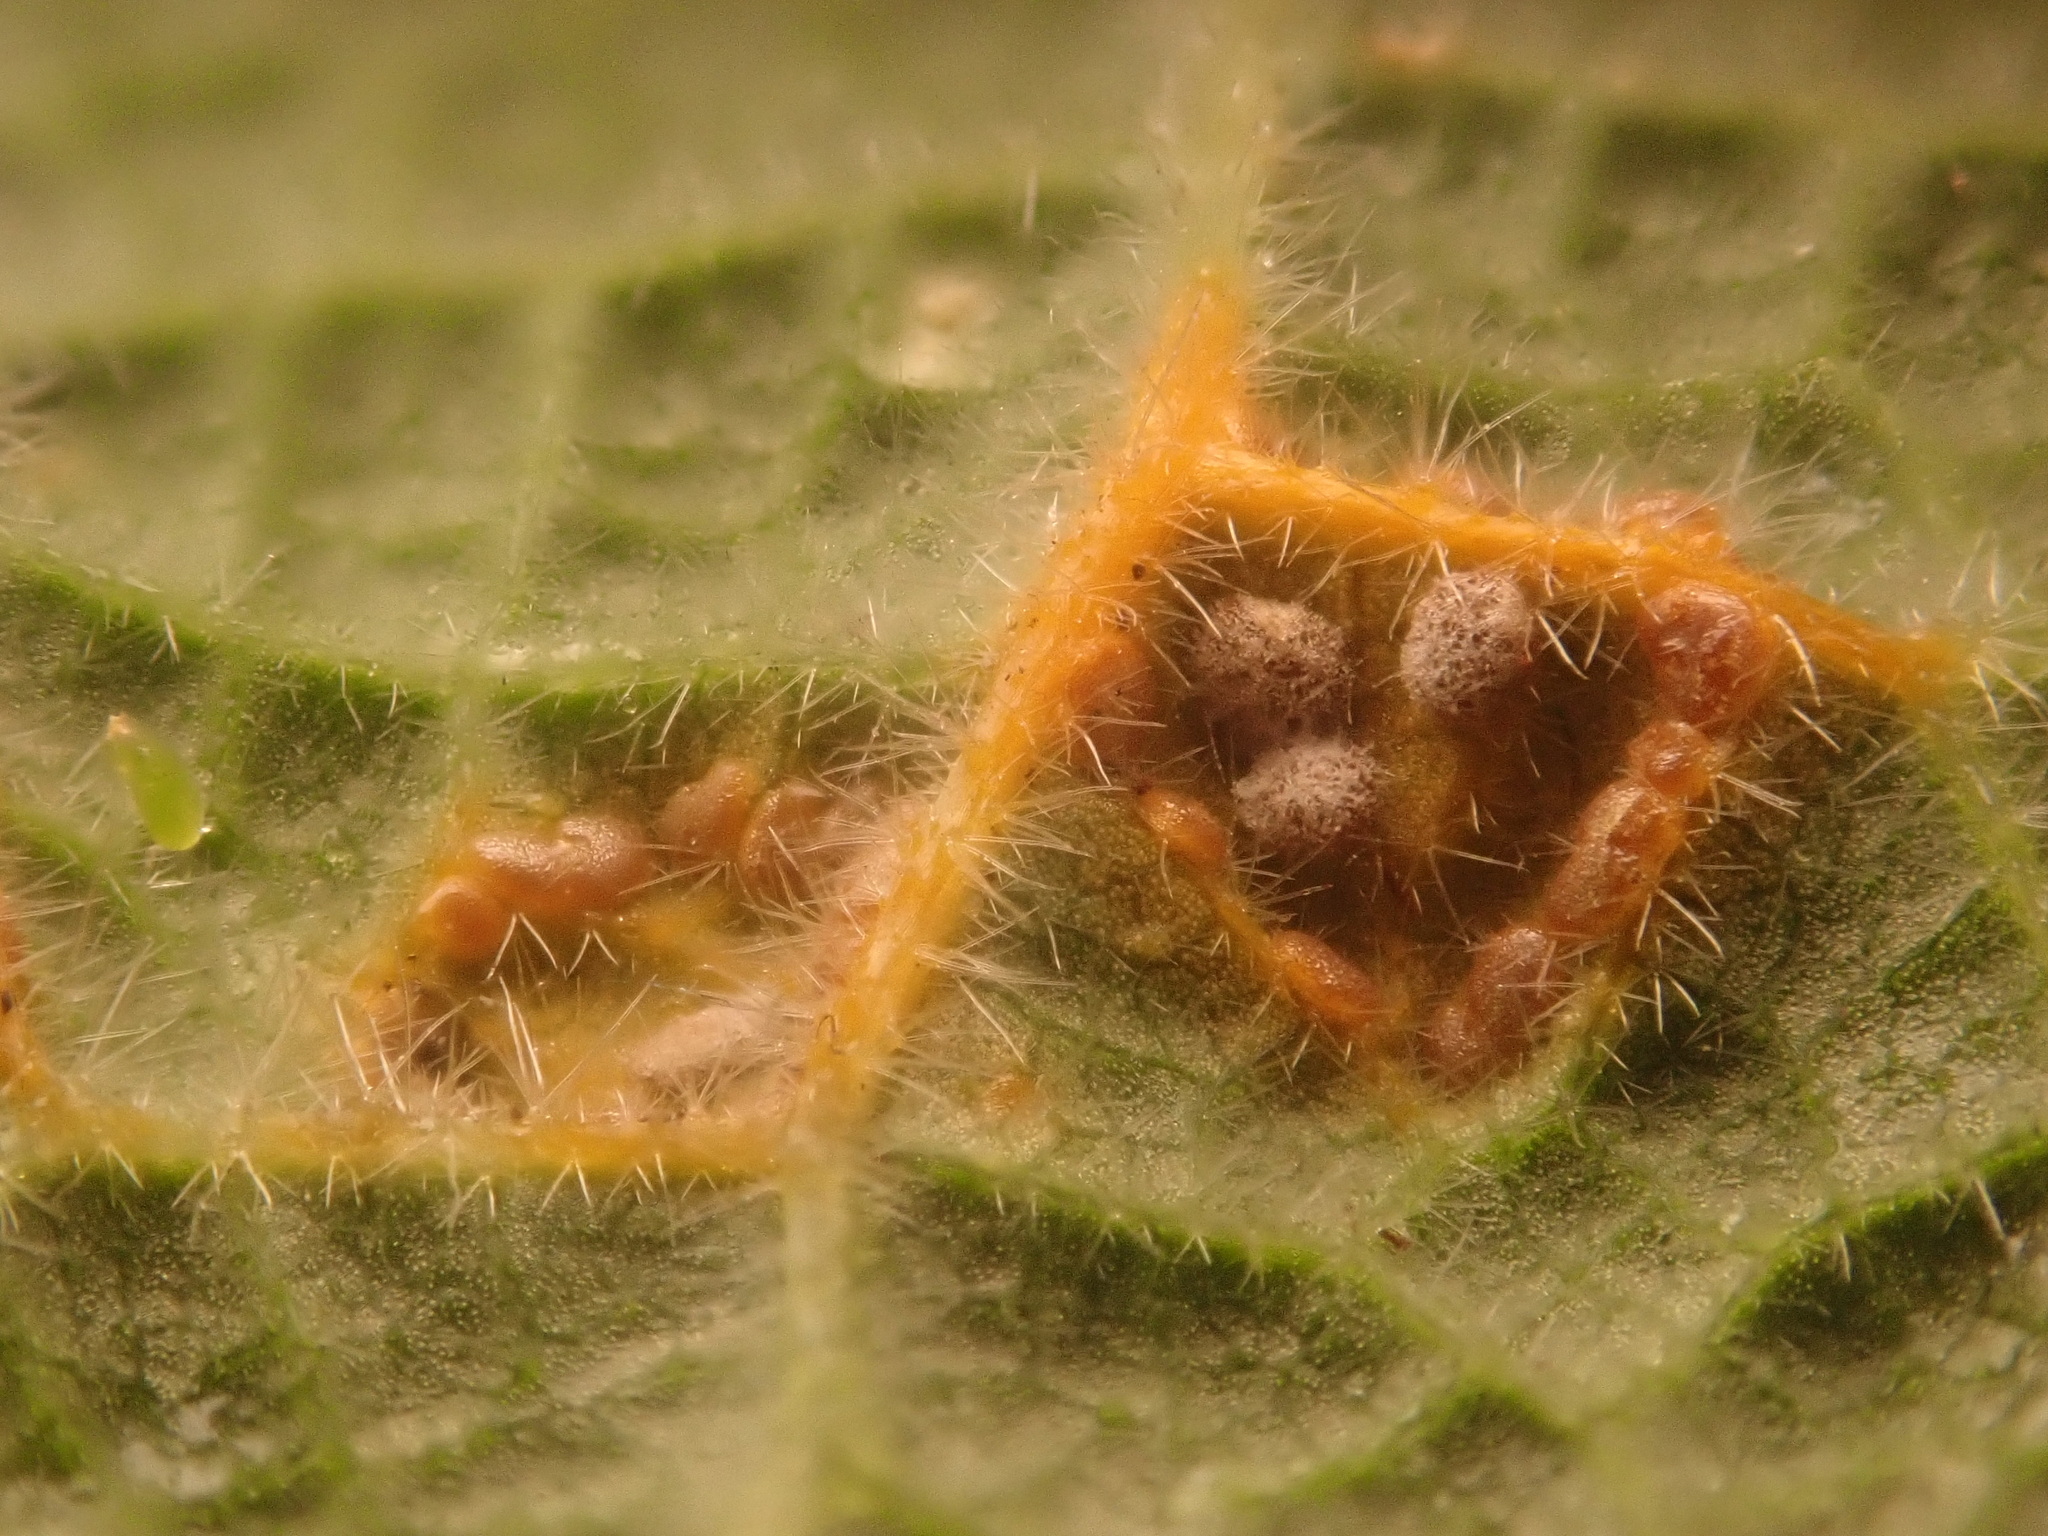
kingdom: Fungi
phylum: Basidiomycota
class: Pucciniomycetes
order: Pucciniales
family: Pucciniaceae
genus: Puccinia
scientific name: Puccinia malvacearum
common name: Hollyhock rust
